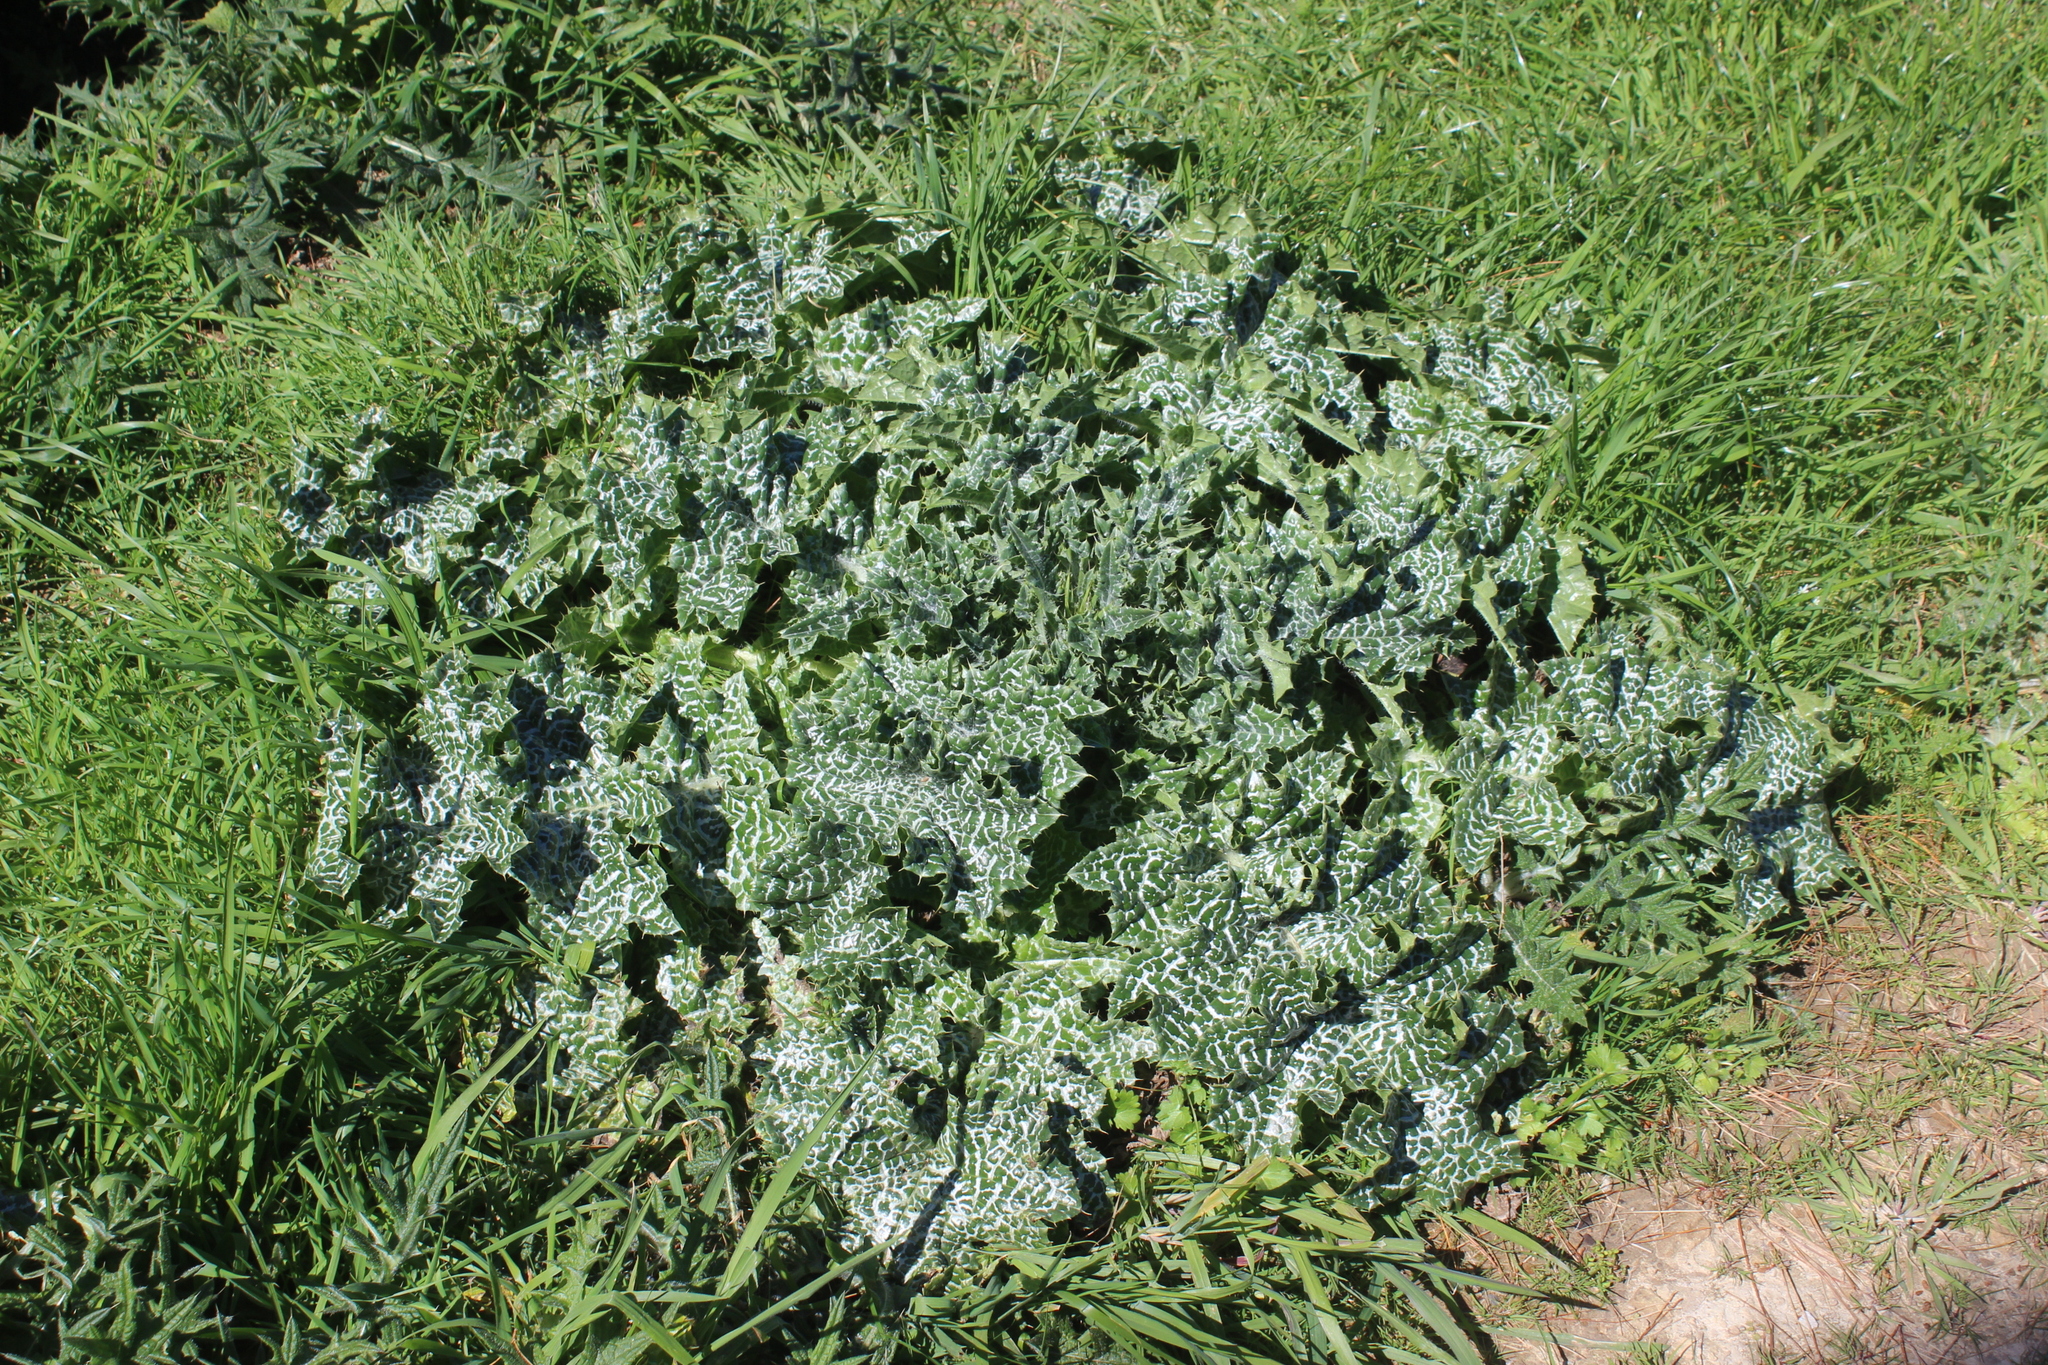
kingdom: Plantae
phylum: Tracheophyta
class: Magnoliopsida
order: Asterales
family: Asteraceae
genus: Silybum
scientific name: Silybum marianum
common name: Milk thistle
